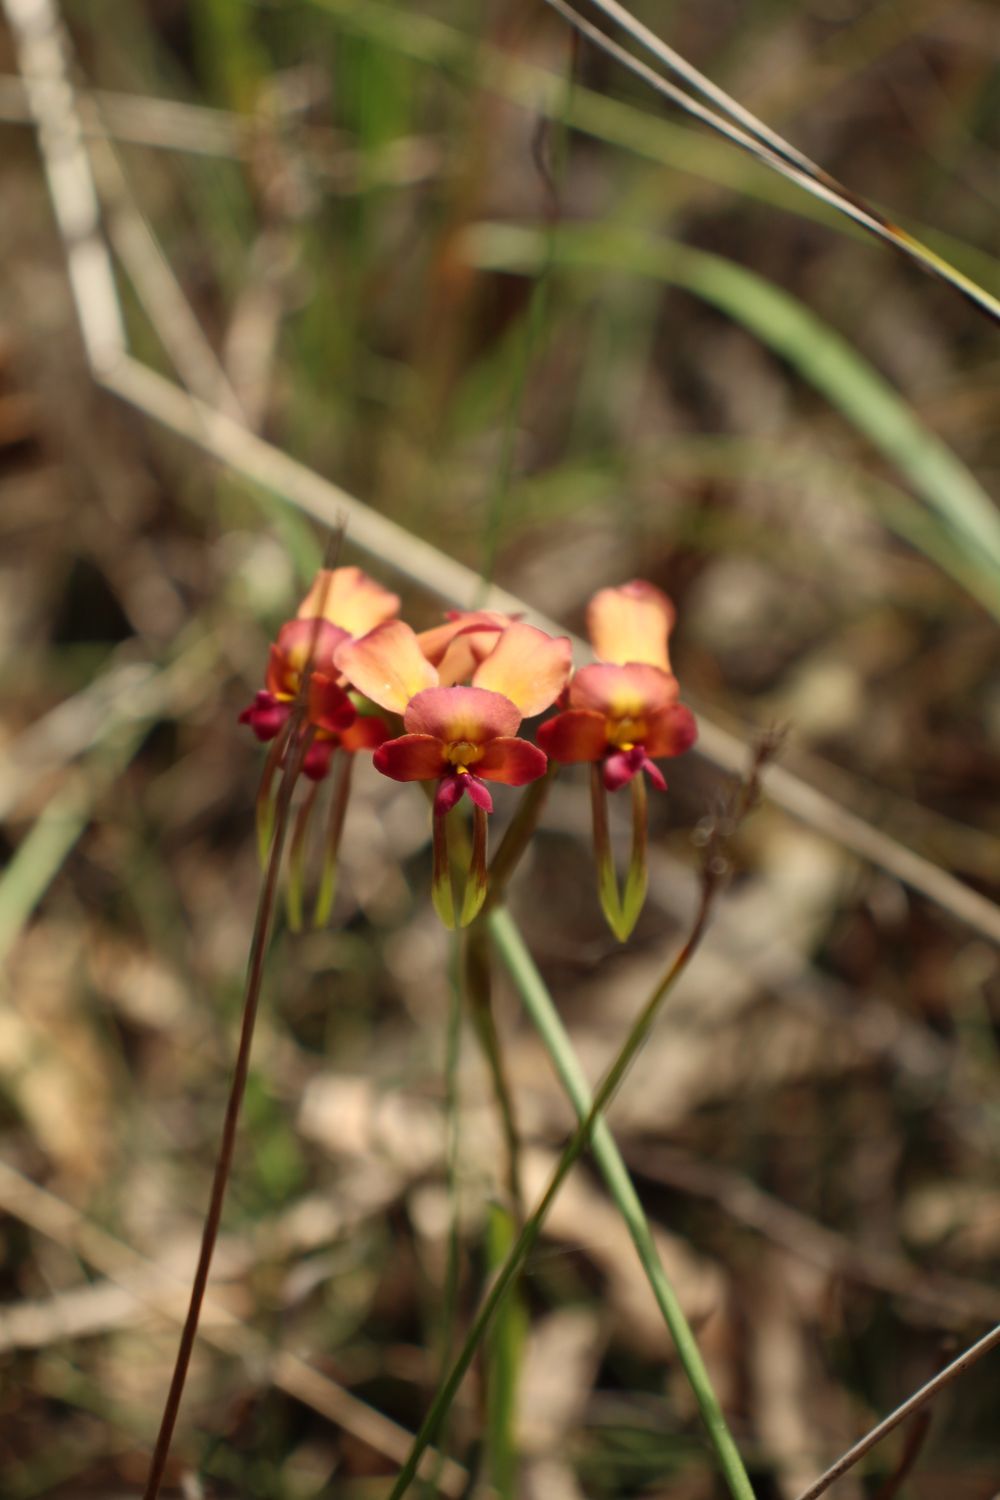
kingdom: Plantae
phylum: Tracheophyta
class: Liliopsida
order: Asparagales
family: Orchidaceae
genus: Diuris
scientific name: Diuris longifolia
